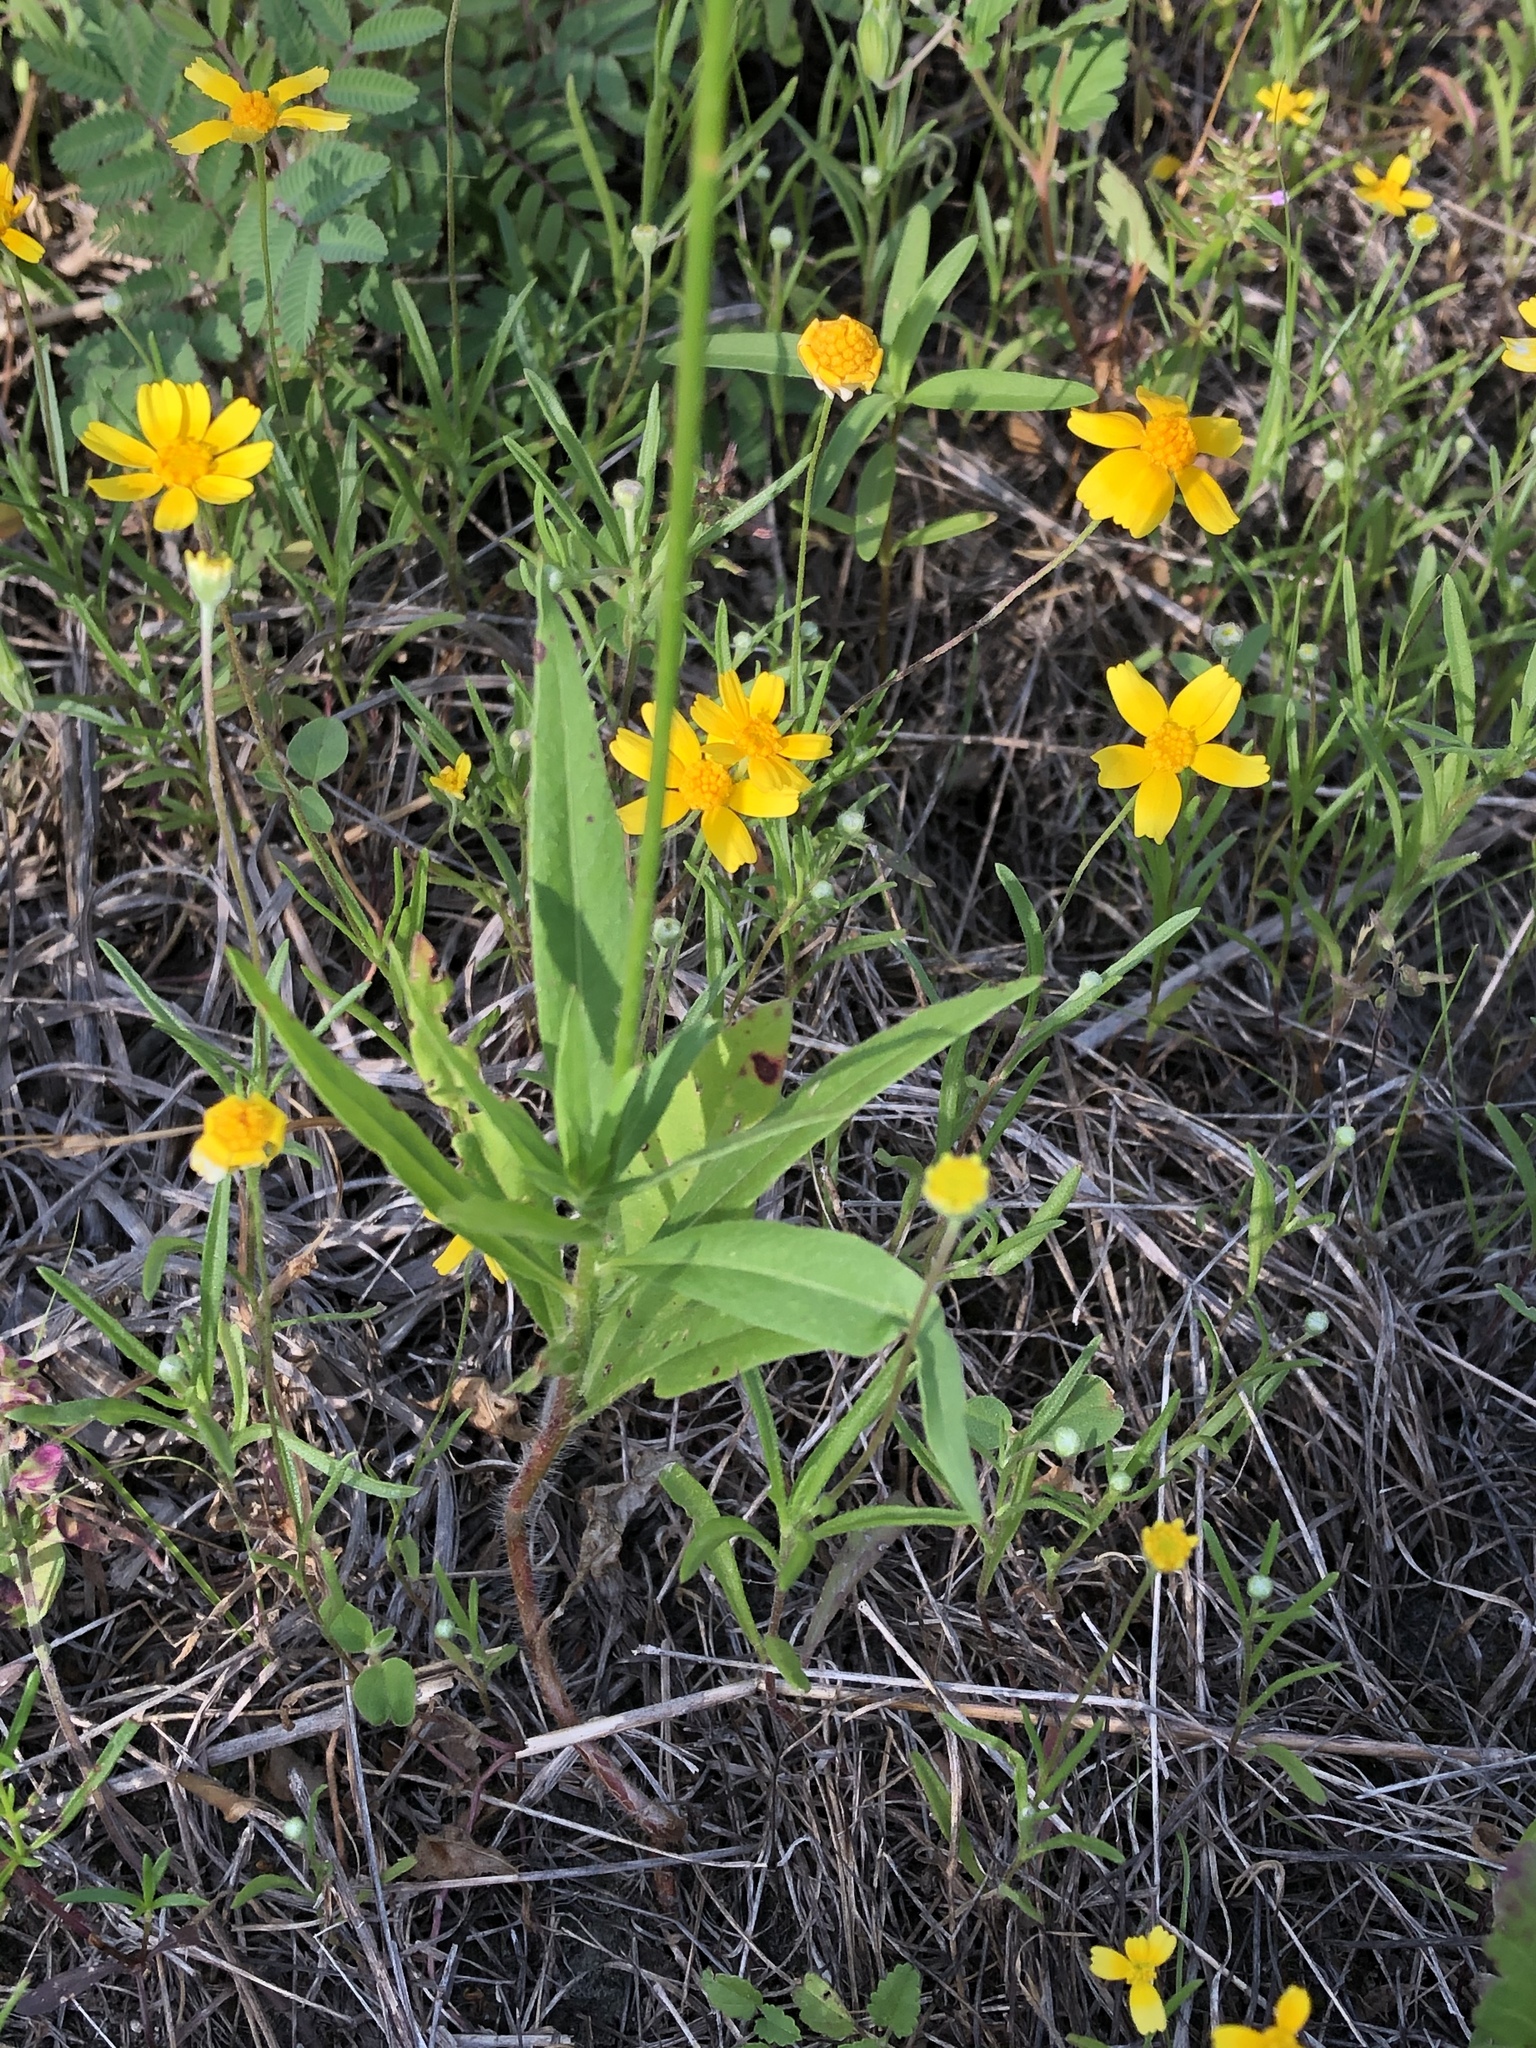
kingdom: Plantae
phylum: Tracheophyta
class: Magnoliopsida
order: Myrtales
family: Onagraceae
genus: Oenothera
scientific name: Oenothera suffulta
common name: Kisses
